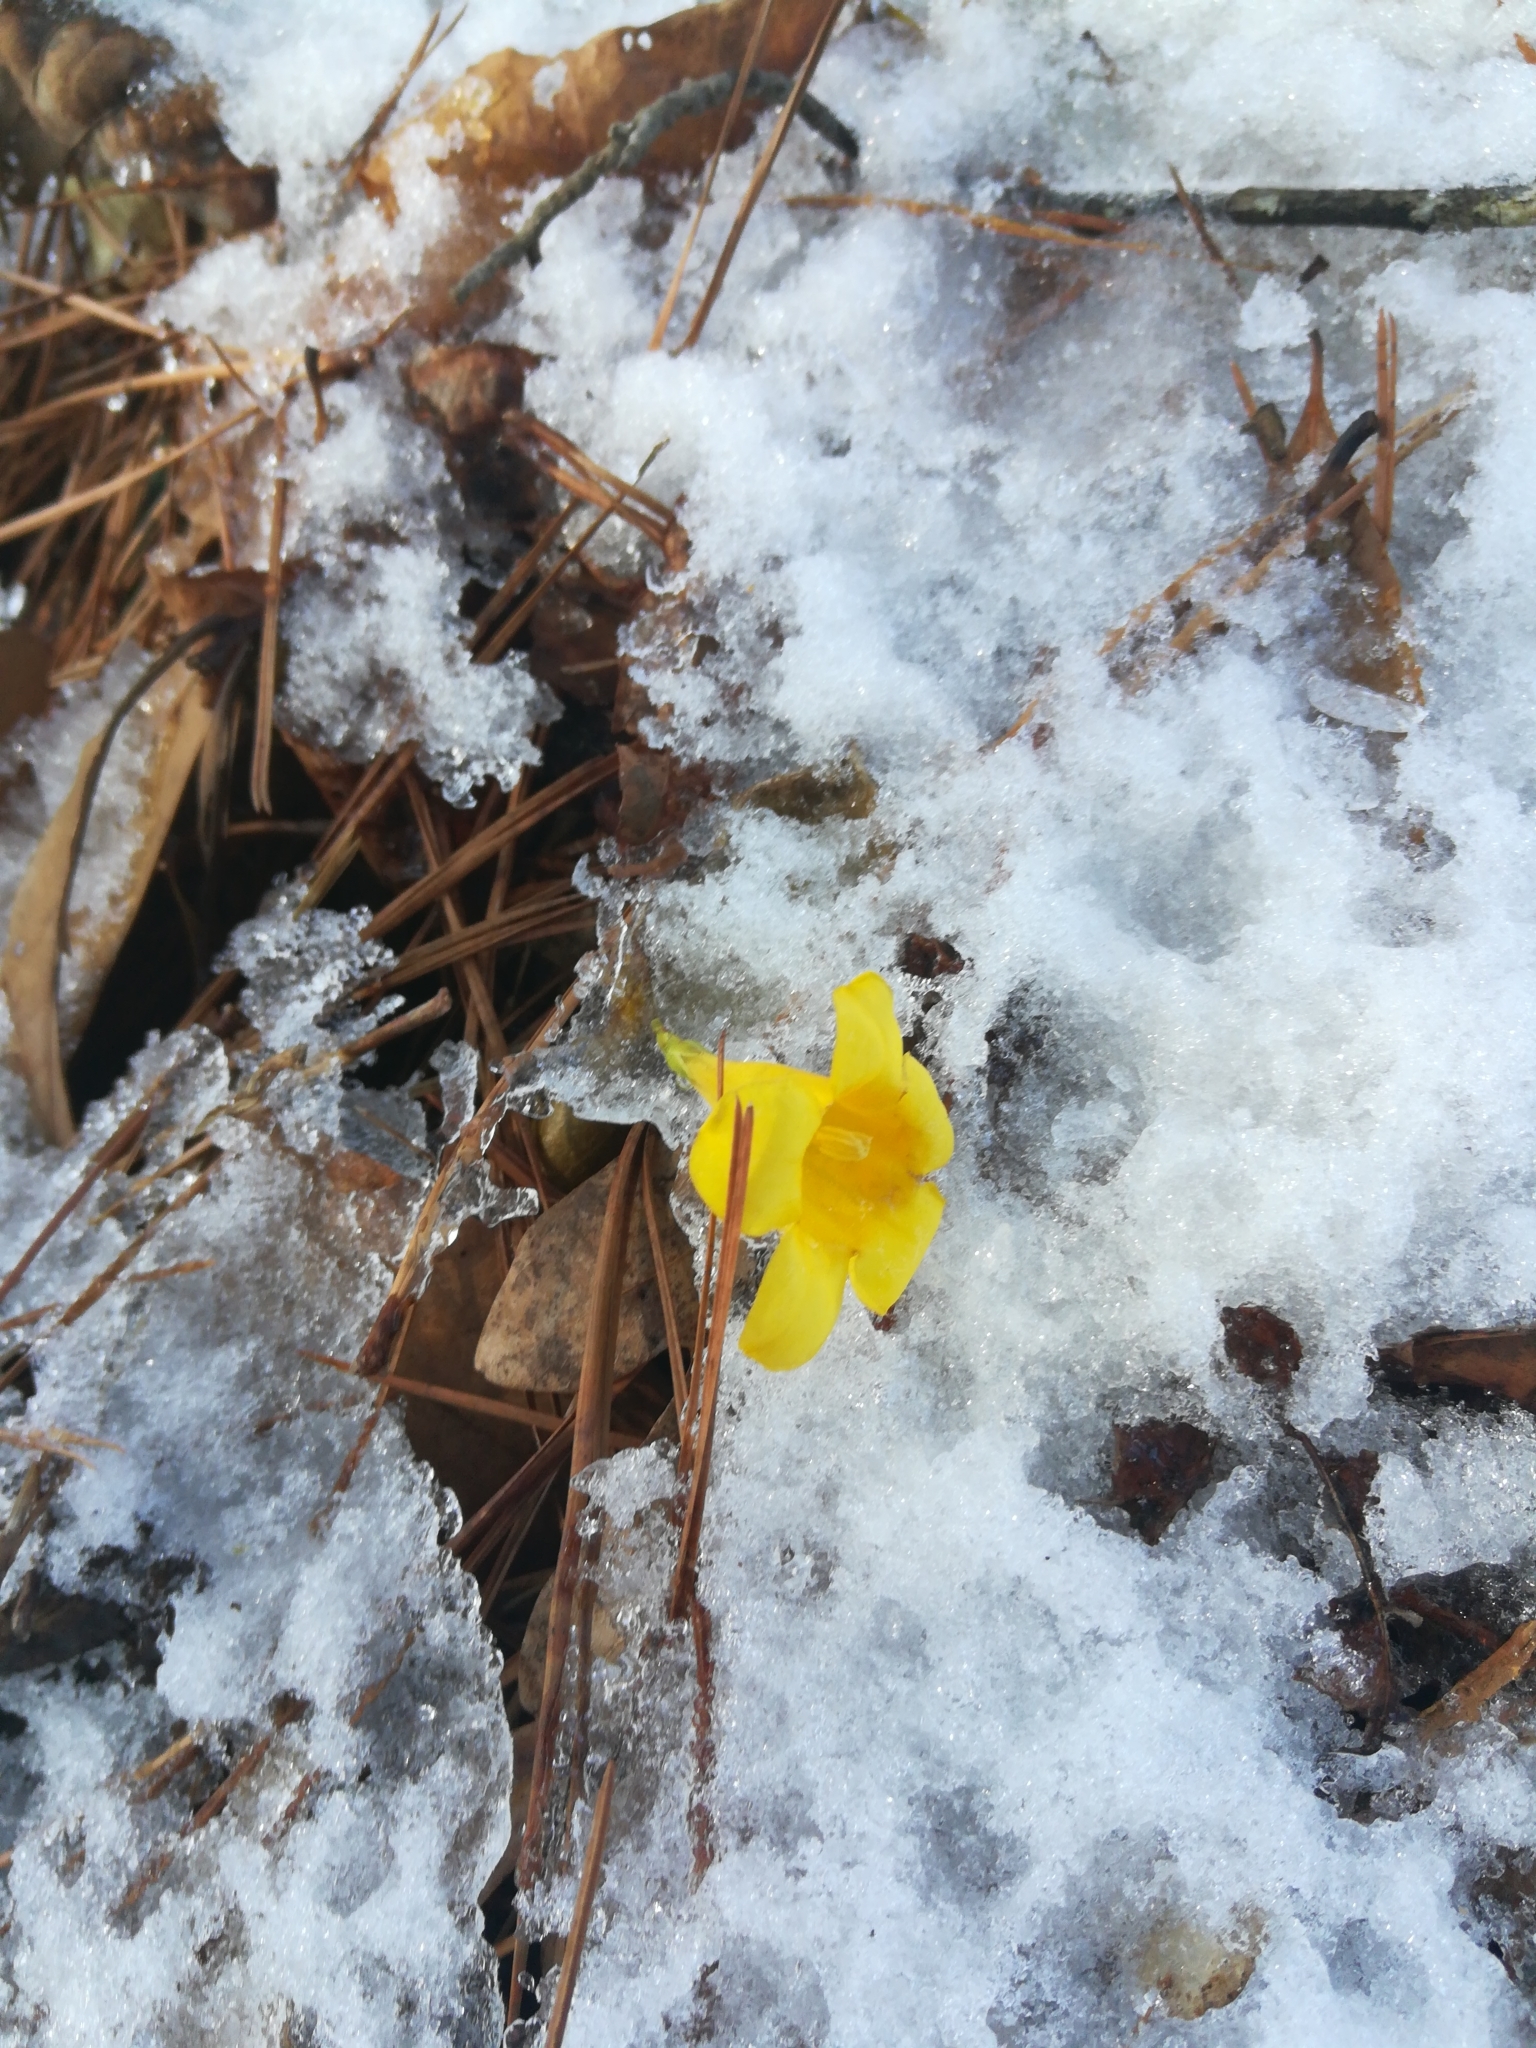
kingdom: Plantae
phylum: Tracheophyta
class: Magnoliopsida
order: Gentianales
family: Gelsemiaceae
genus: Gelsemium
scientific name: Gelsemium sempervirens
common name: Carolina-jasmine
